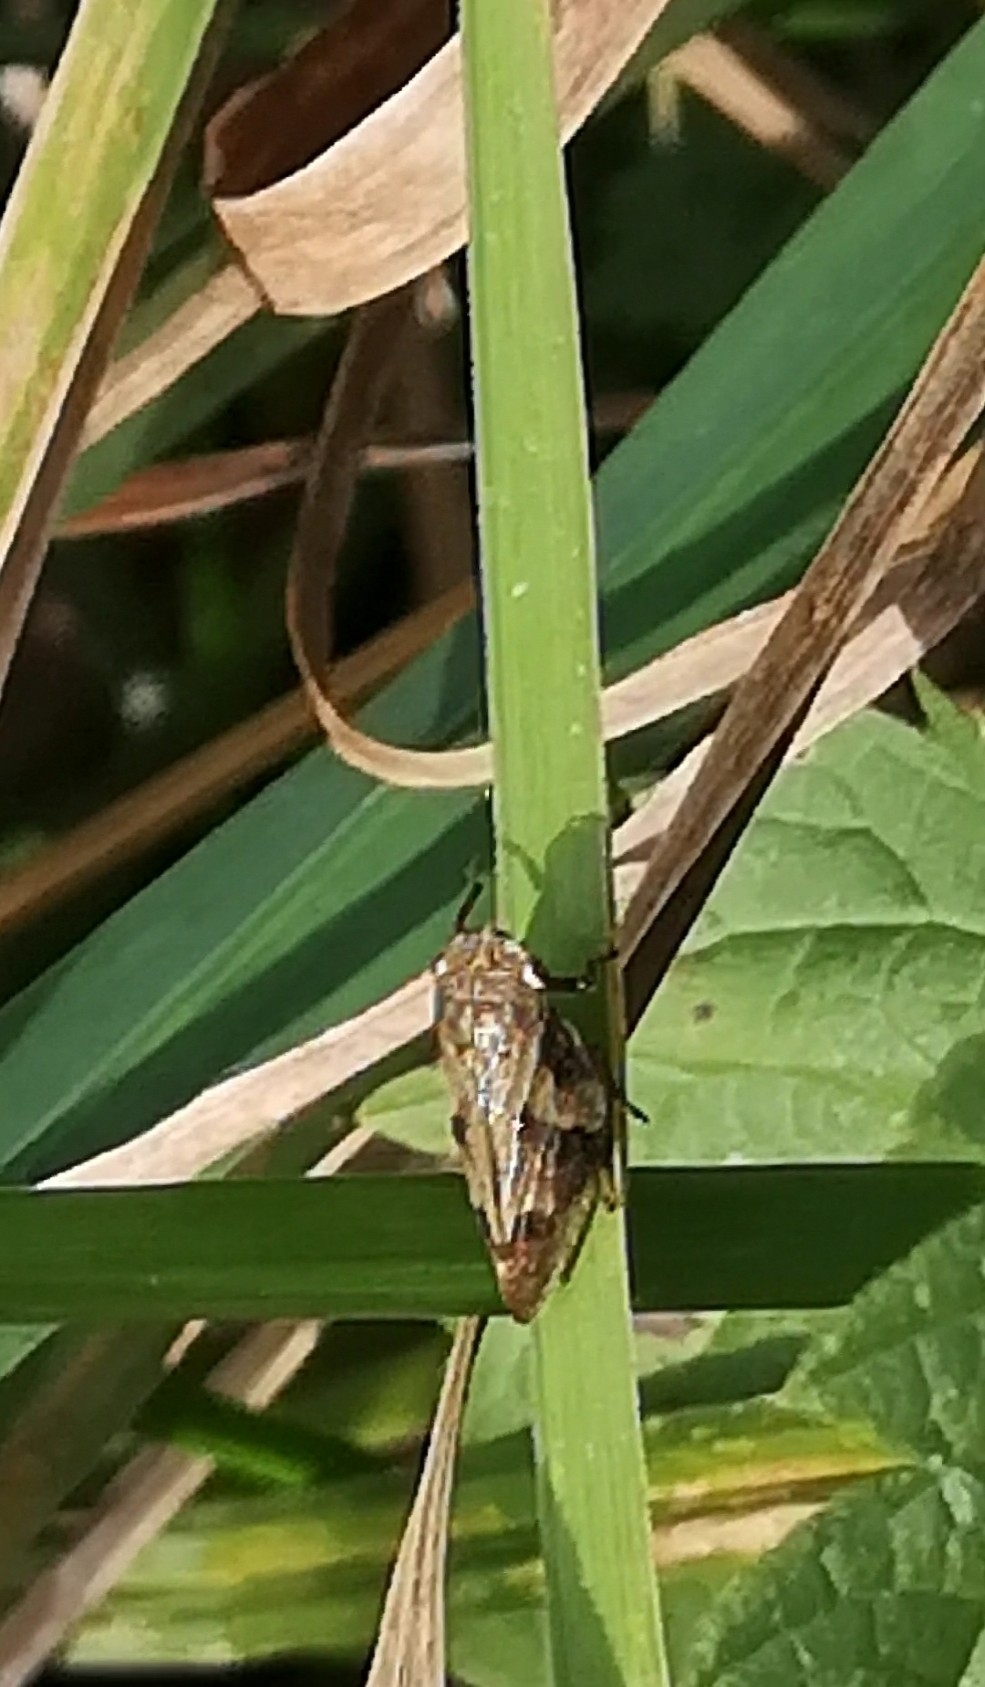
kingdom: Animalia
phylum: Arthropoda
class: Insecta
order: Hemiptera
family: Aphrophoridae
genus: Aphrophora
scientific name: Aphrophora alni
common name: European alder spittlebug
